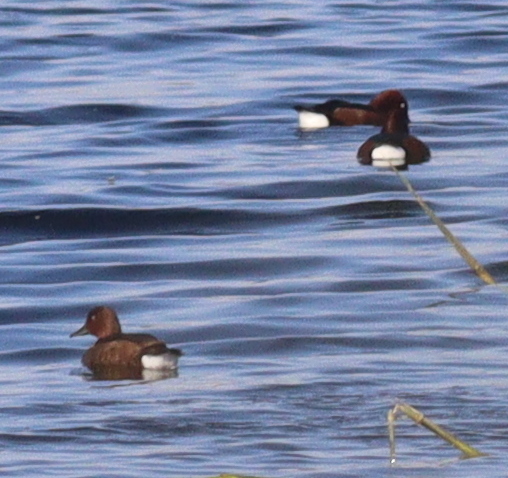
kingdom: Animalia
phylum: Chordata
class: Aves
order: Anseriformes
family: Anatidae
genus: Aythya
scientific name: Aythya nyroca
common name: Ferruginous duck
